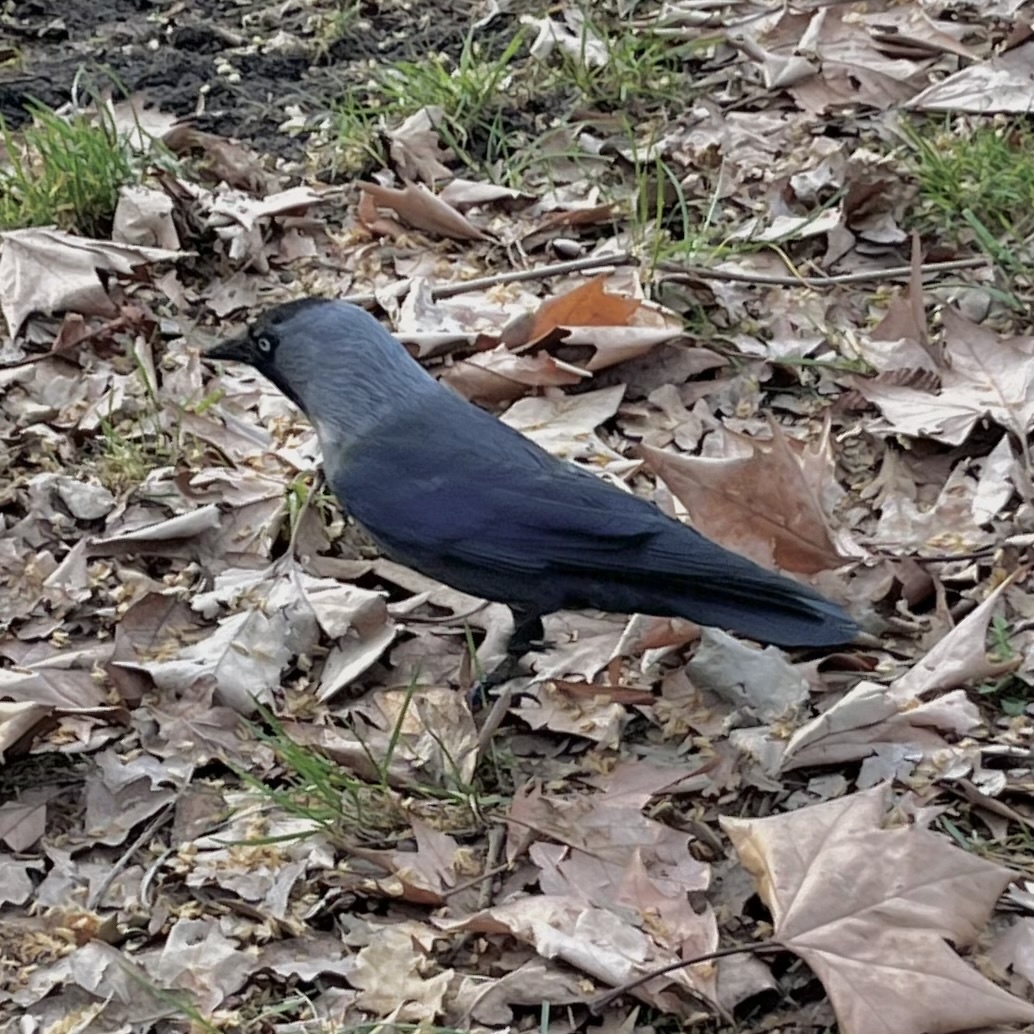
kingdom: Animalia
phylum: Chordata
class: Aves
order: Passeriformes
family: Corvidae
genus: Coloeus
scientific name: Coloeus monedula
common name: Western jackdaw
